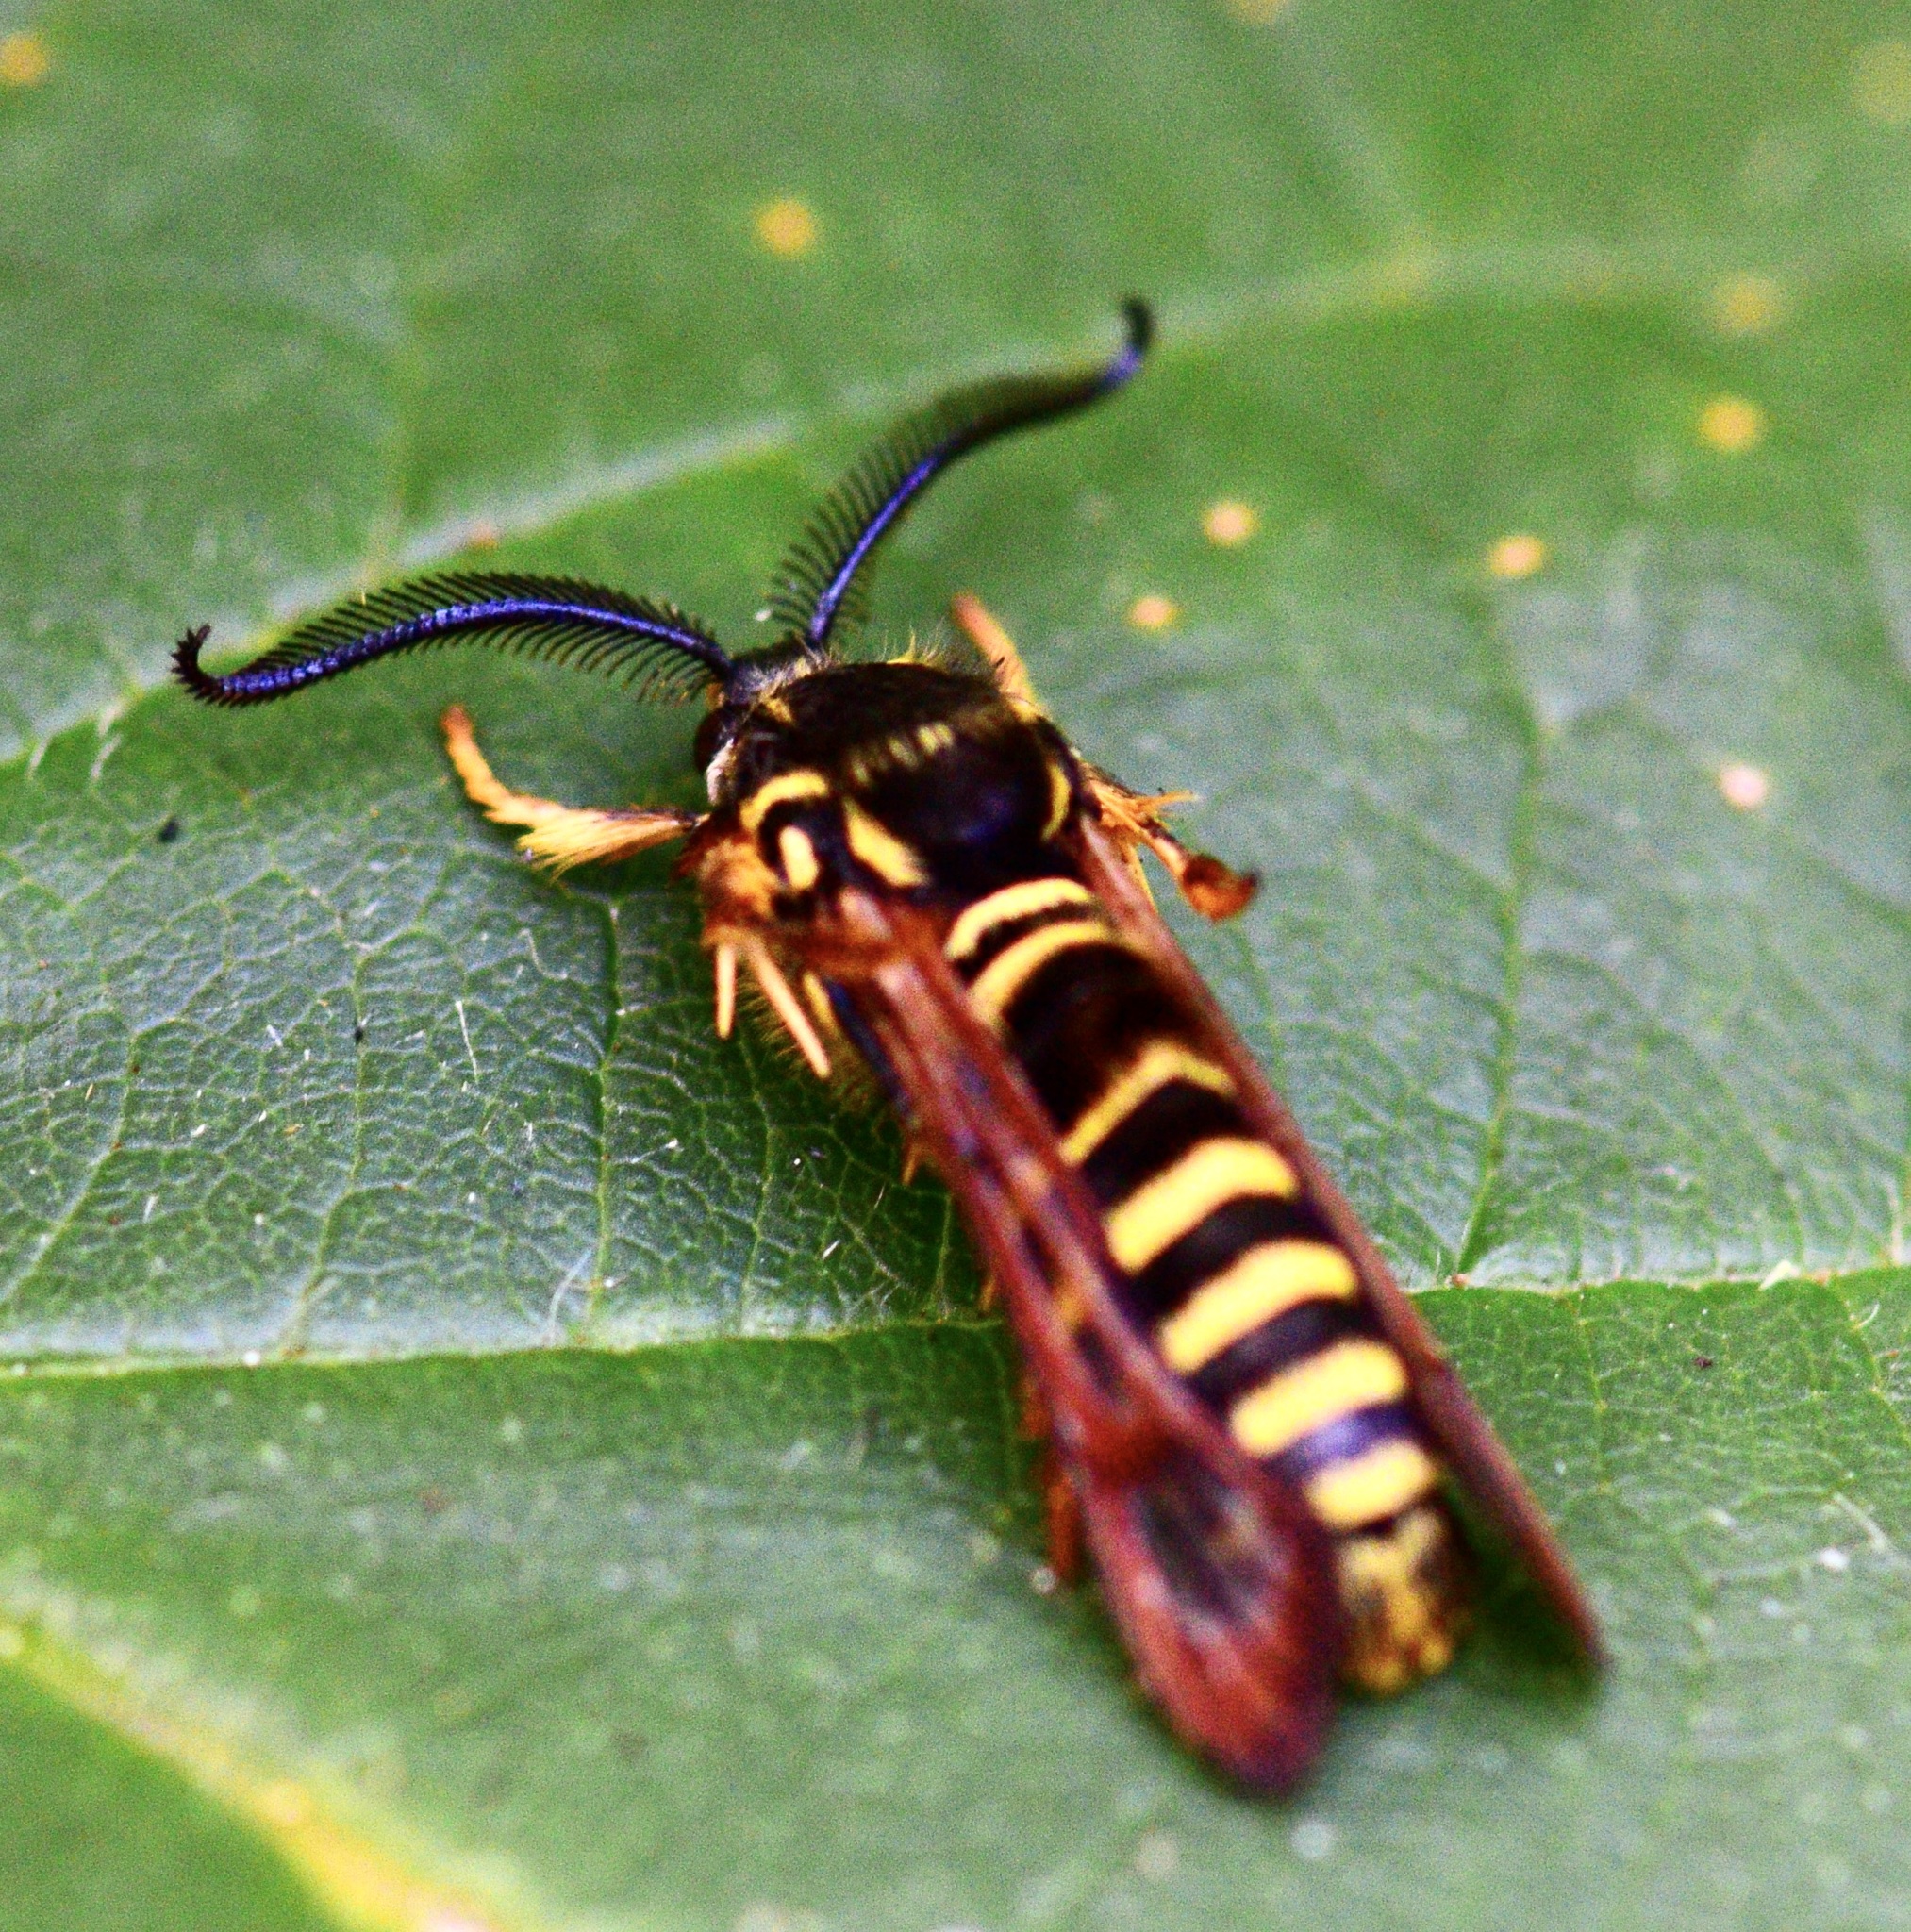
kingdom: Animalia
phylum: Arthropoda
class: Insecta
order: Lepidoptera
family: Sesiidae
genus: Pennisetia
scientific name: Pennisetia marginatum
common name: Raspberry crown borer
